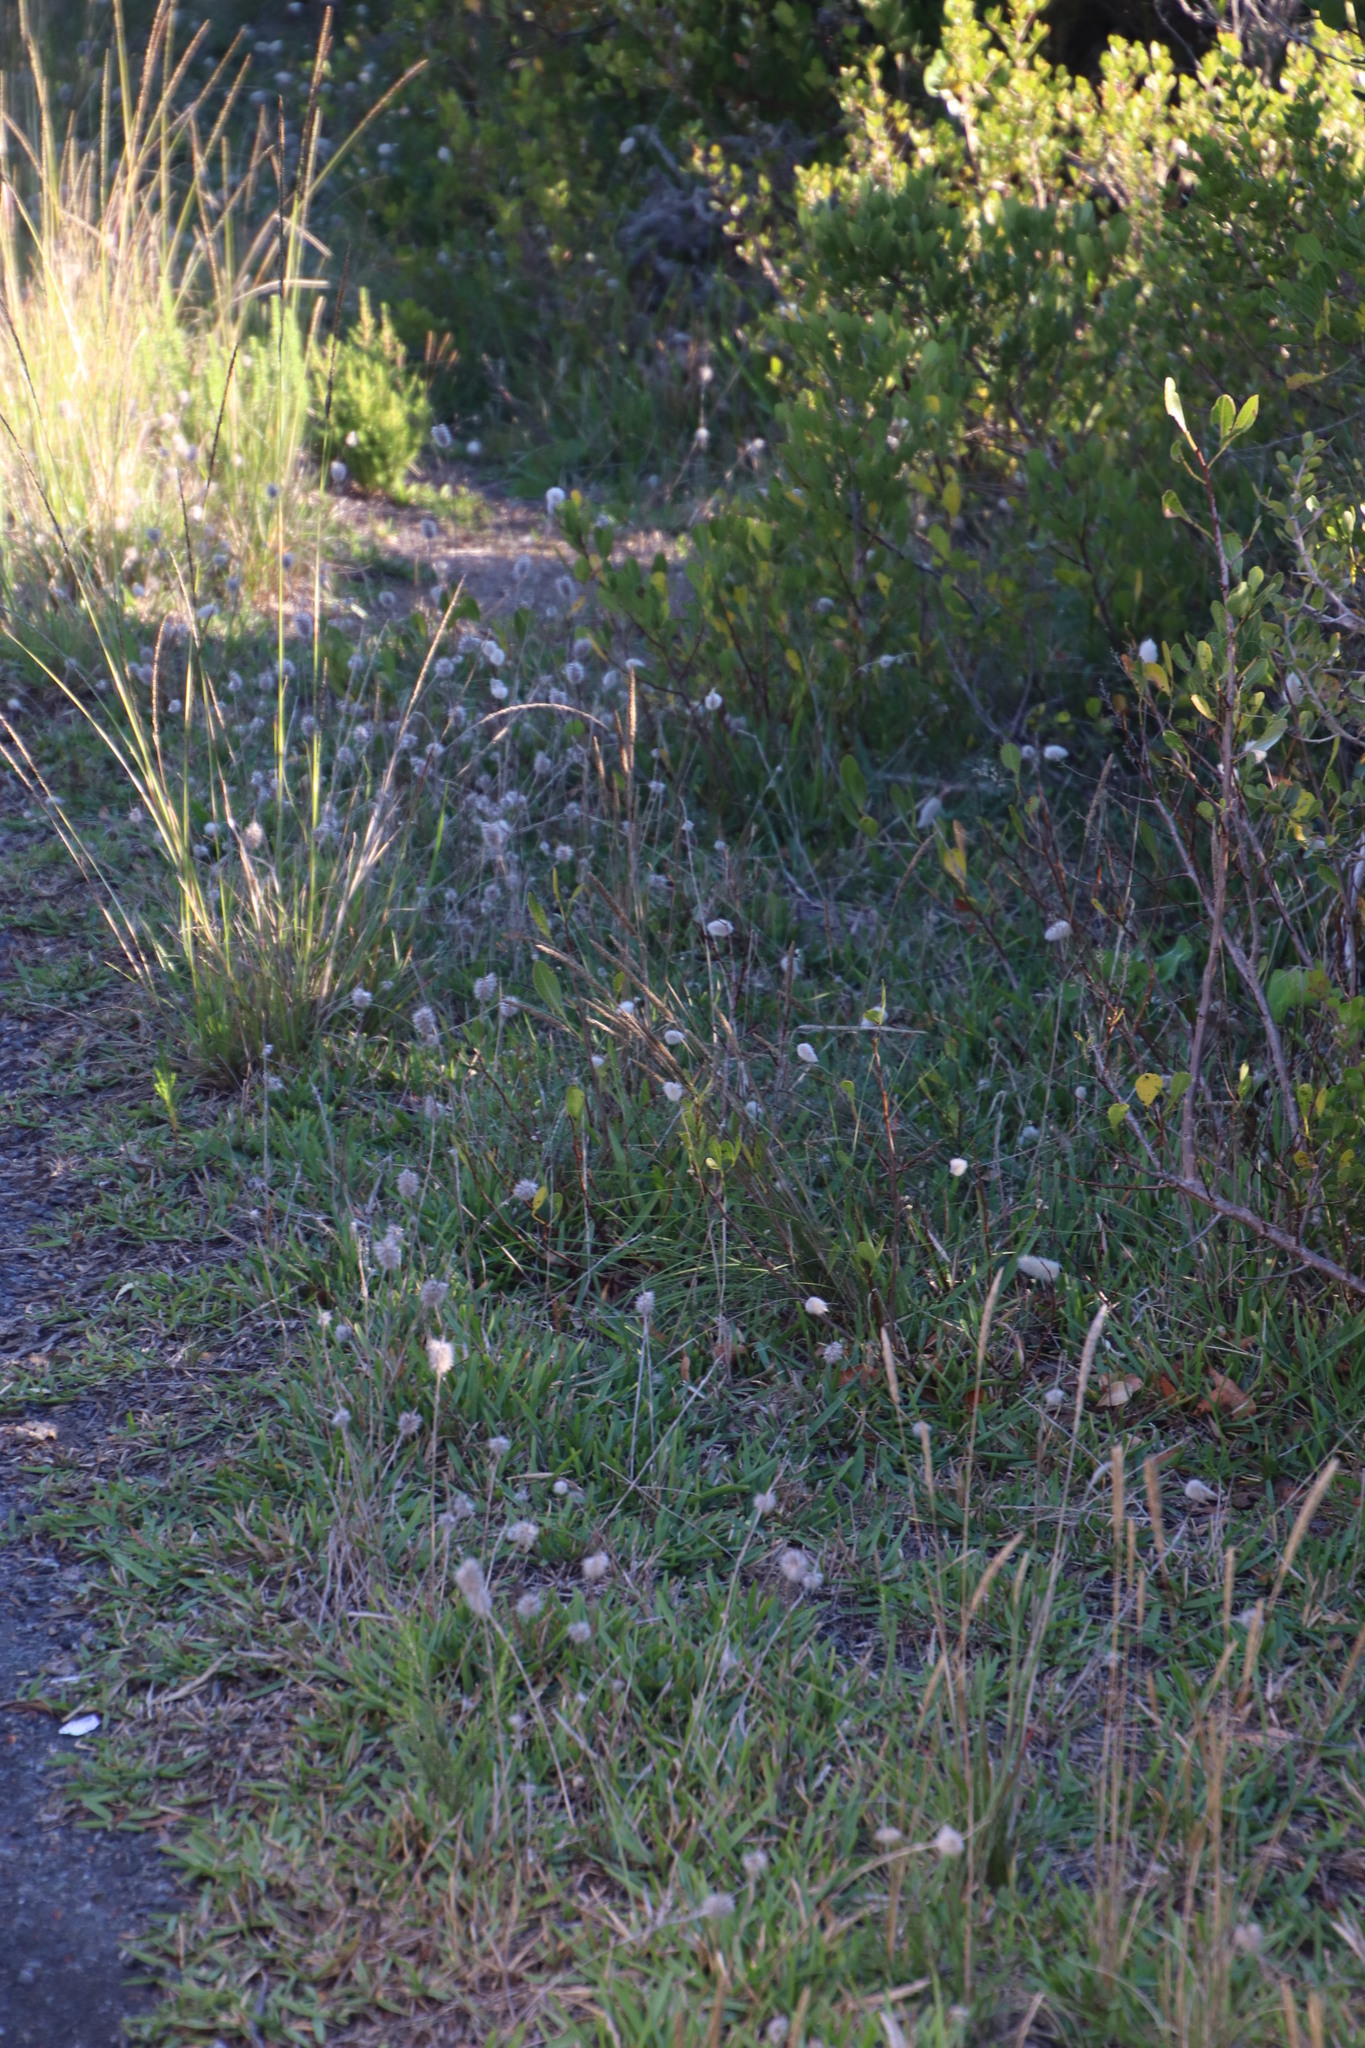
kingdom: Plantae
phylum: Tracheophyta
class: Liliopsida
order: Poales
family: Poaceae
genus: Lagurus
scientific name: Lagurus ovatus
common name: Hare's-tail
